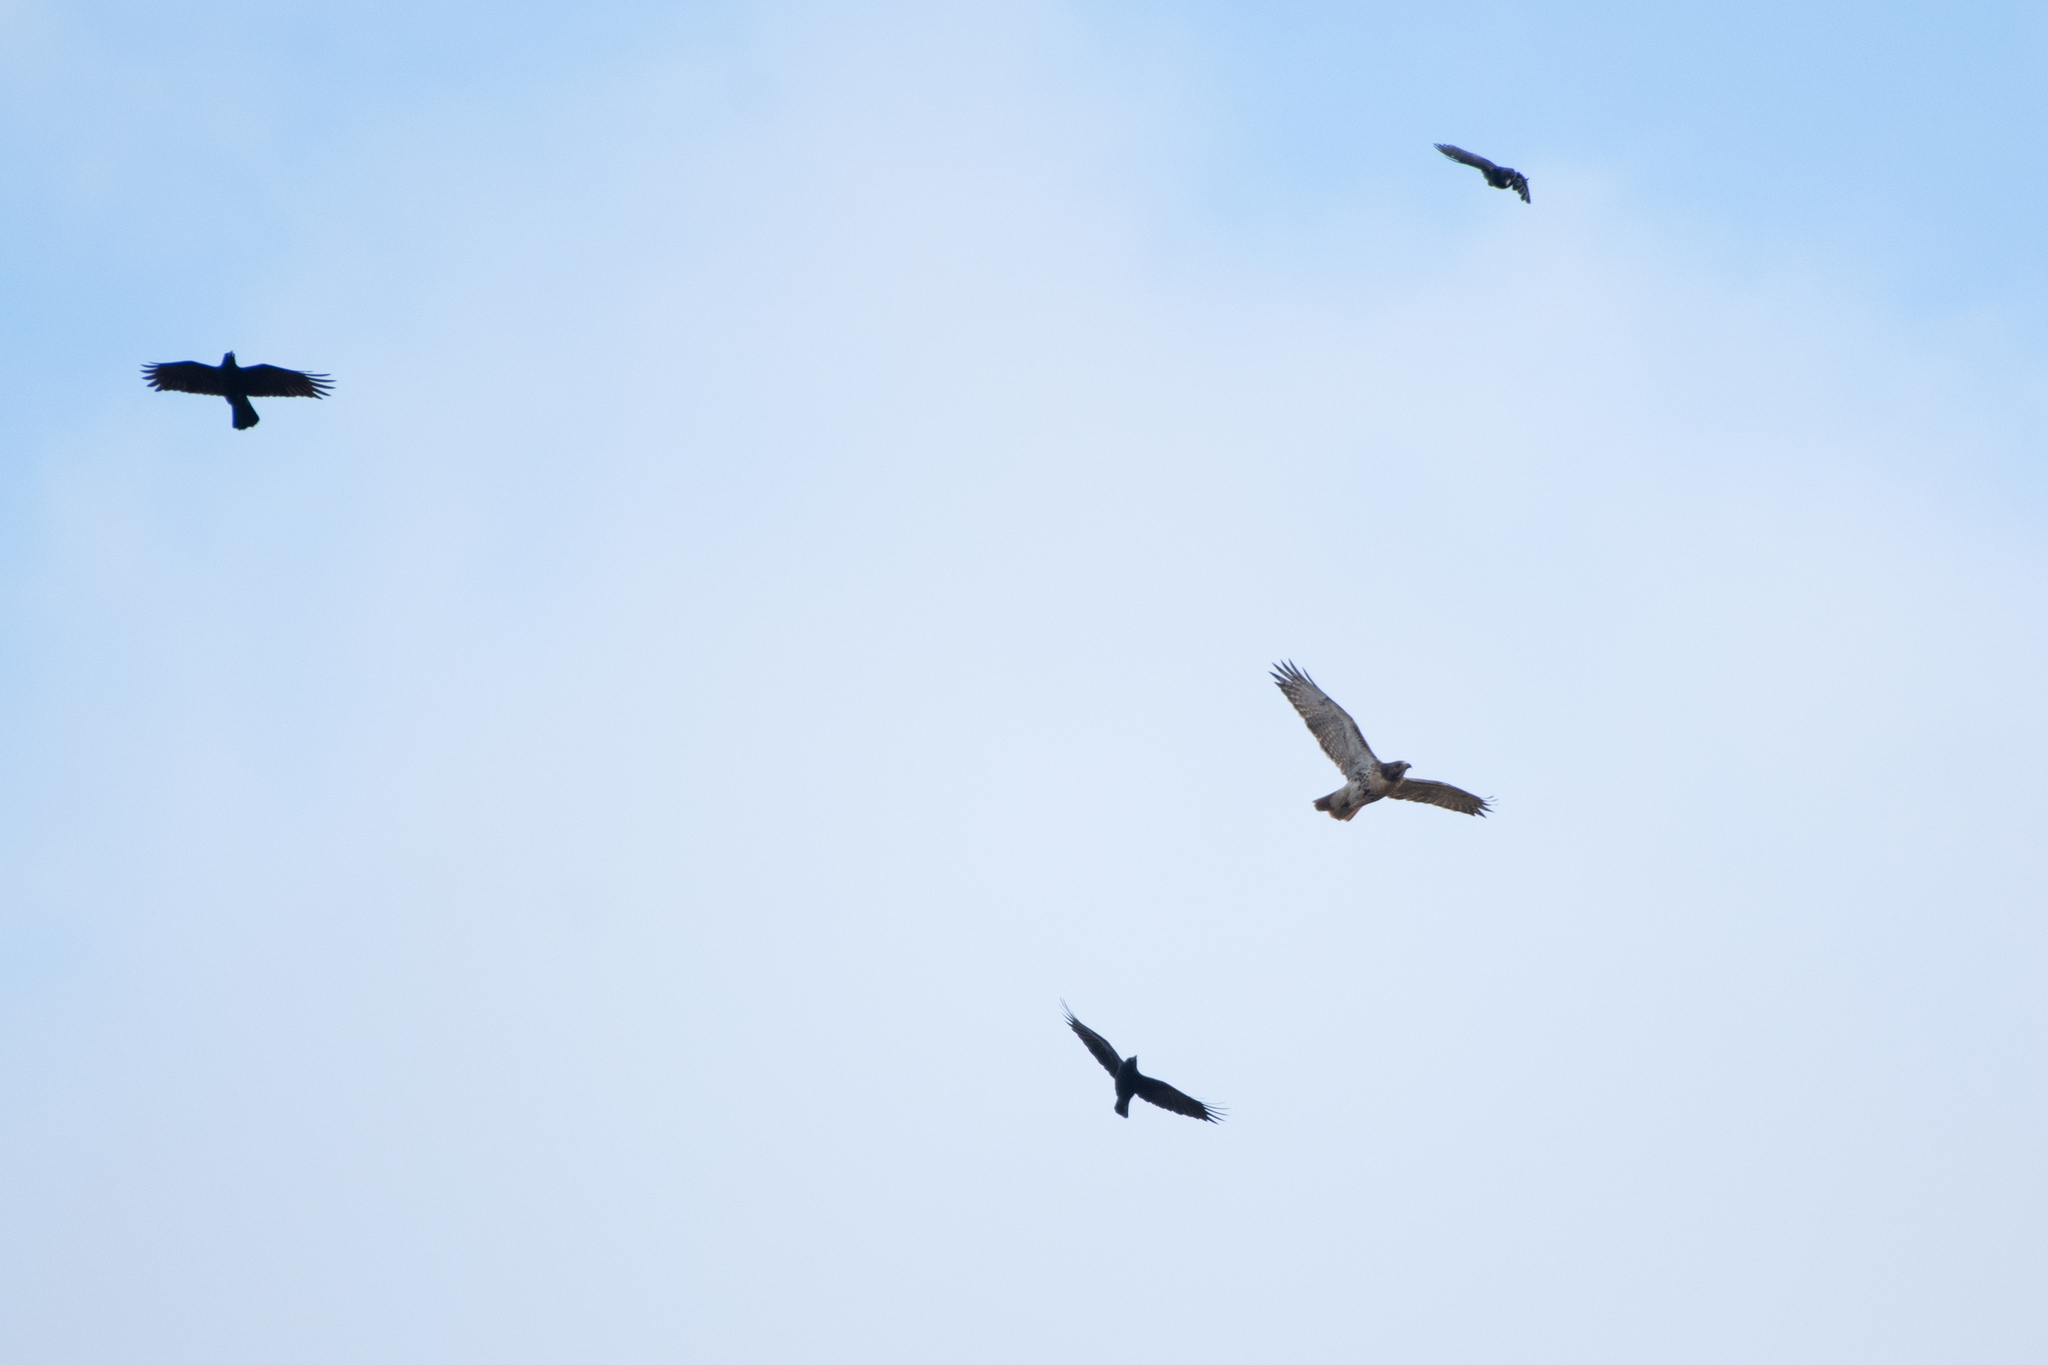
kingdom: Animalia
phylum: Chordata
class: Aves
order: Passeriformes
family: Corvidae
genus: Corvus
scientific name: Corvus brachyrhynchos
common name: American crow
